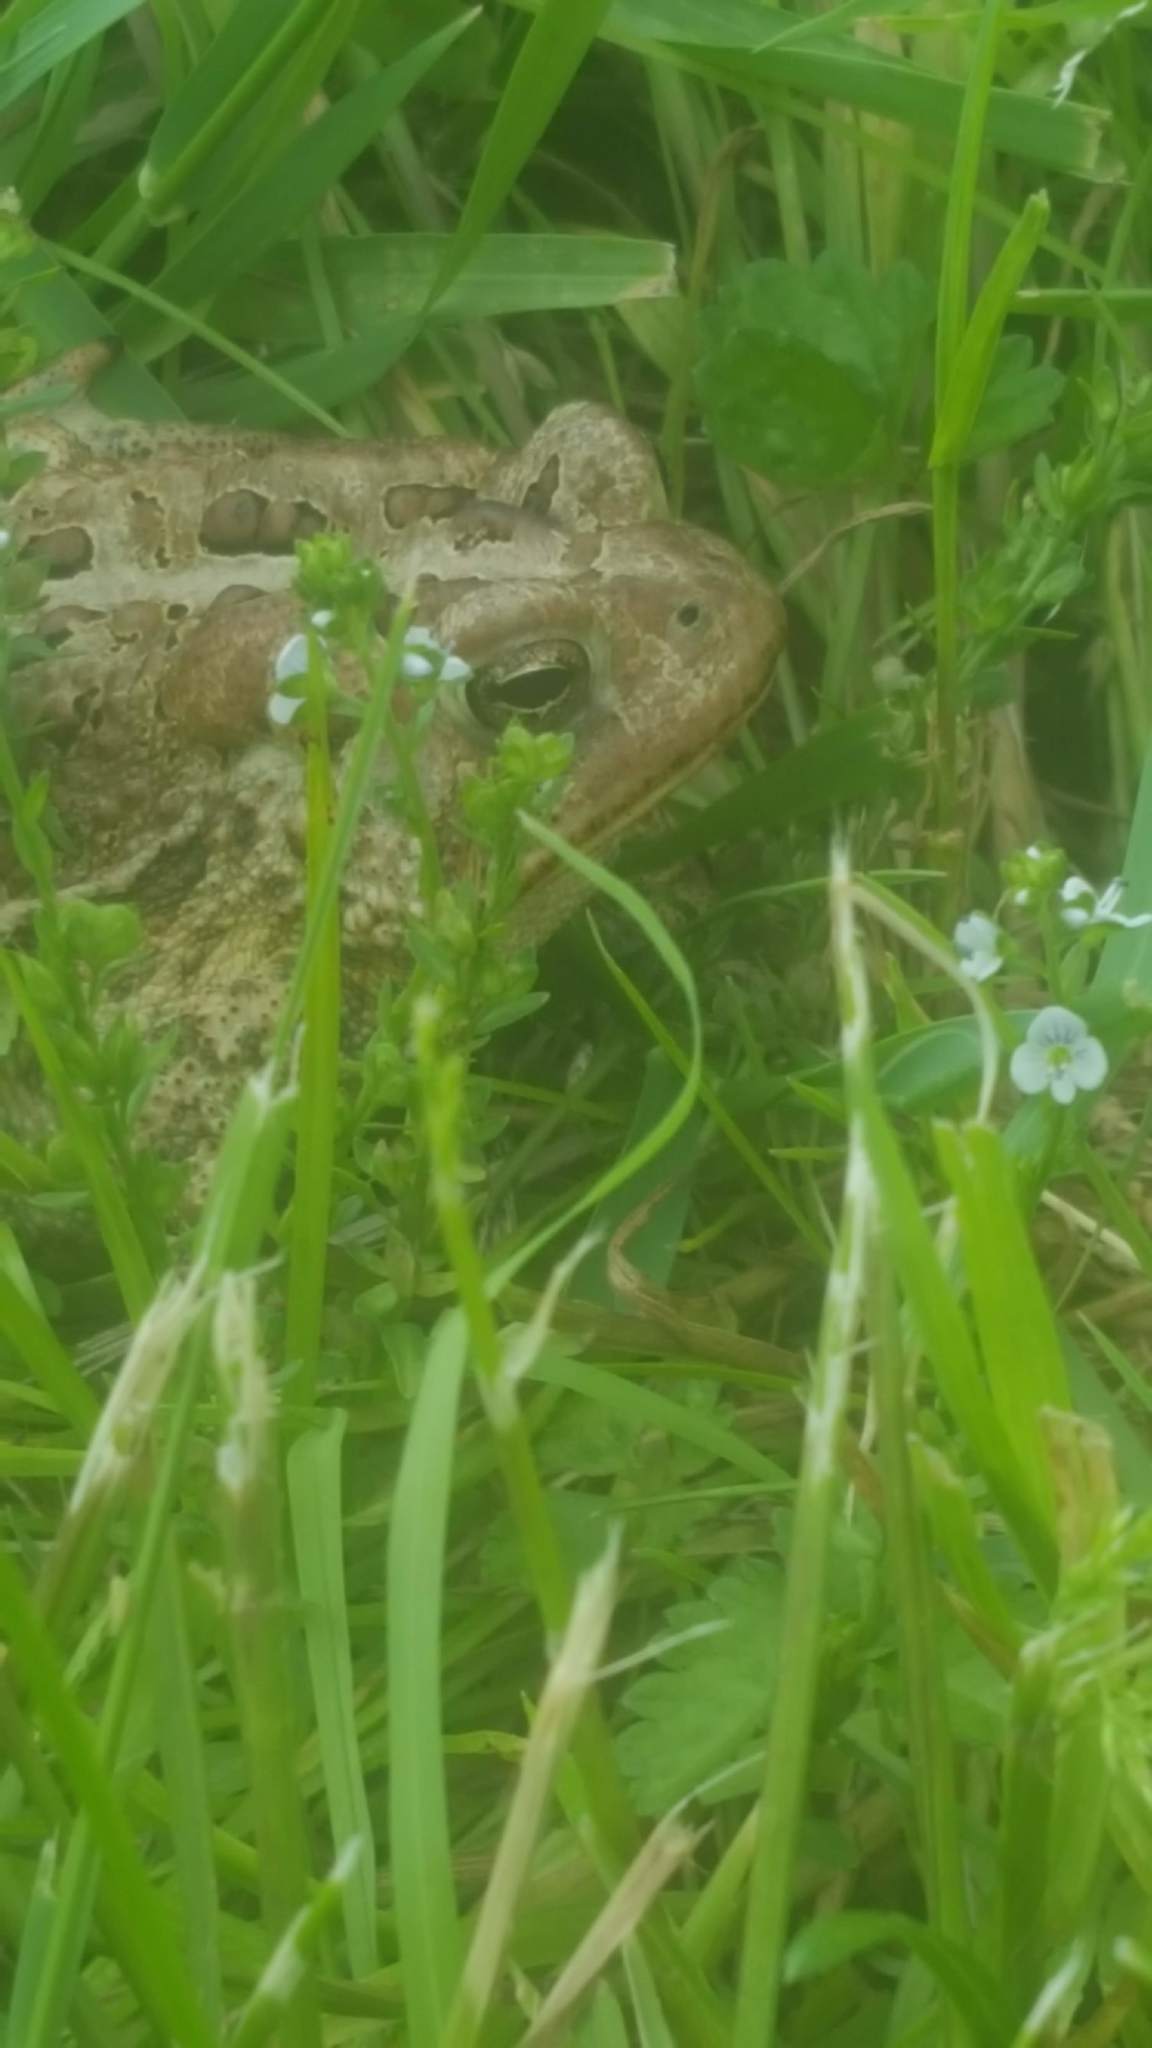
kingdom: Animalia
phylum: Chordata
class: Amphibia
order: Anura
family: Bufonidae
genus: Anaxyrus
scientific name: Anaxyrus americanus
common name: American toad
